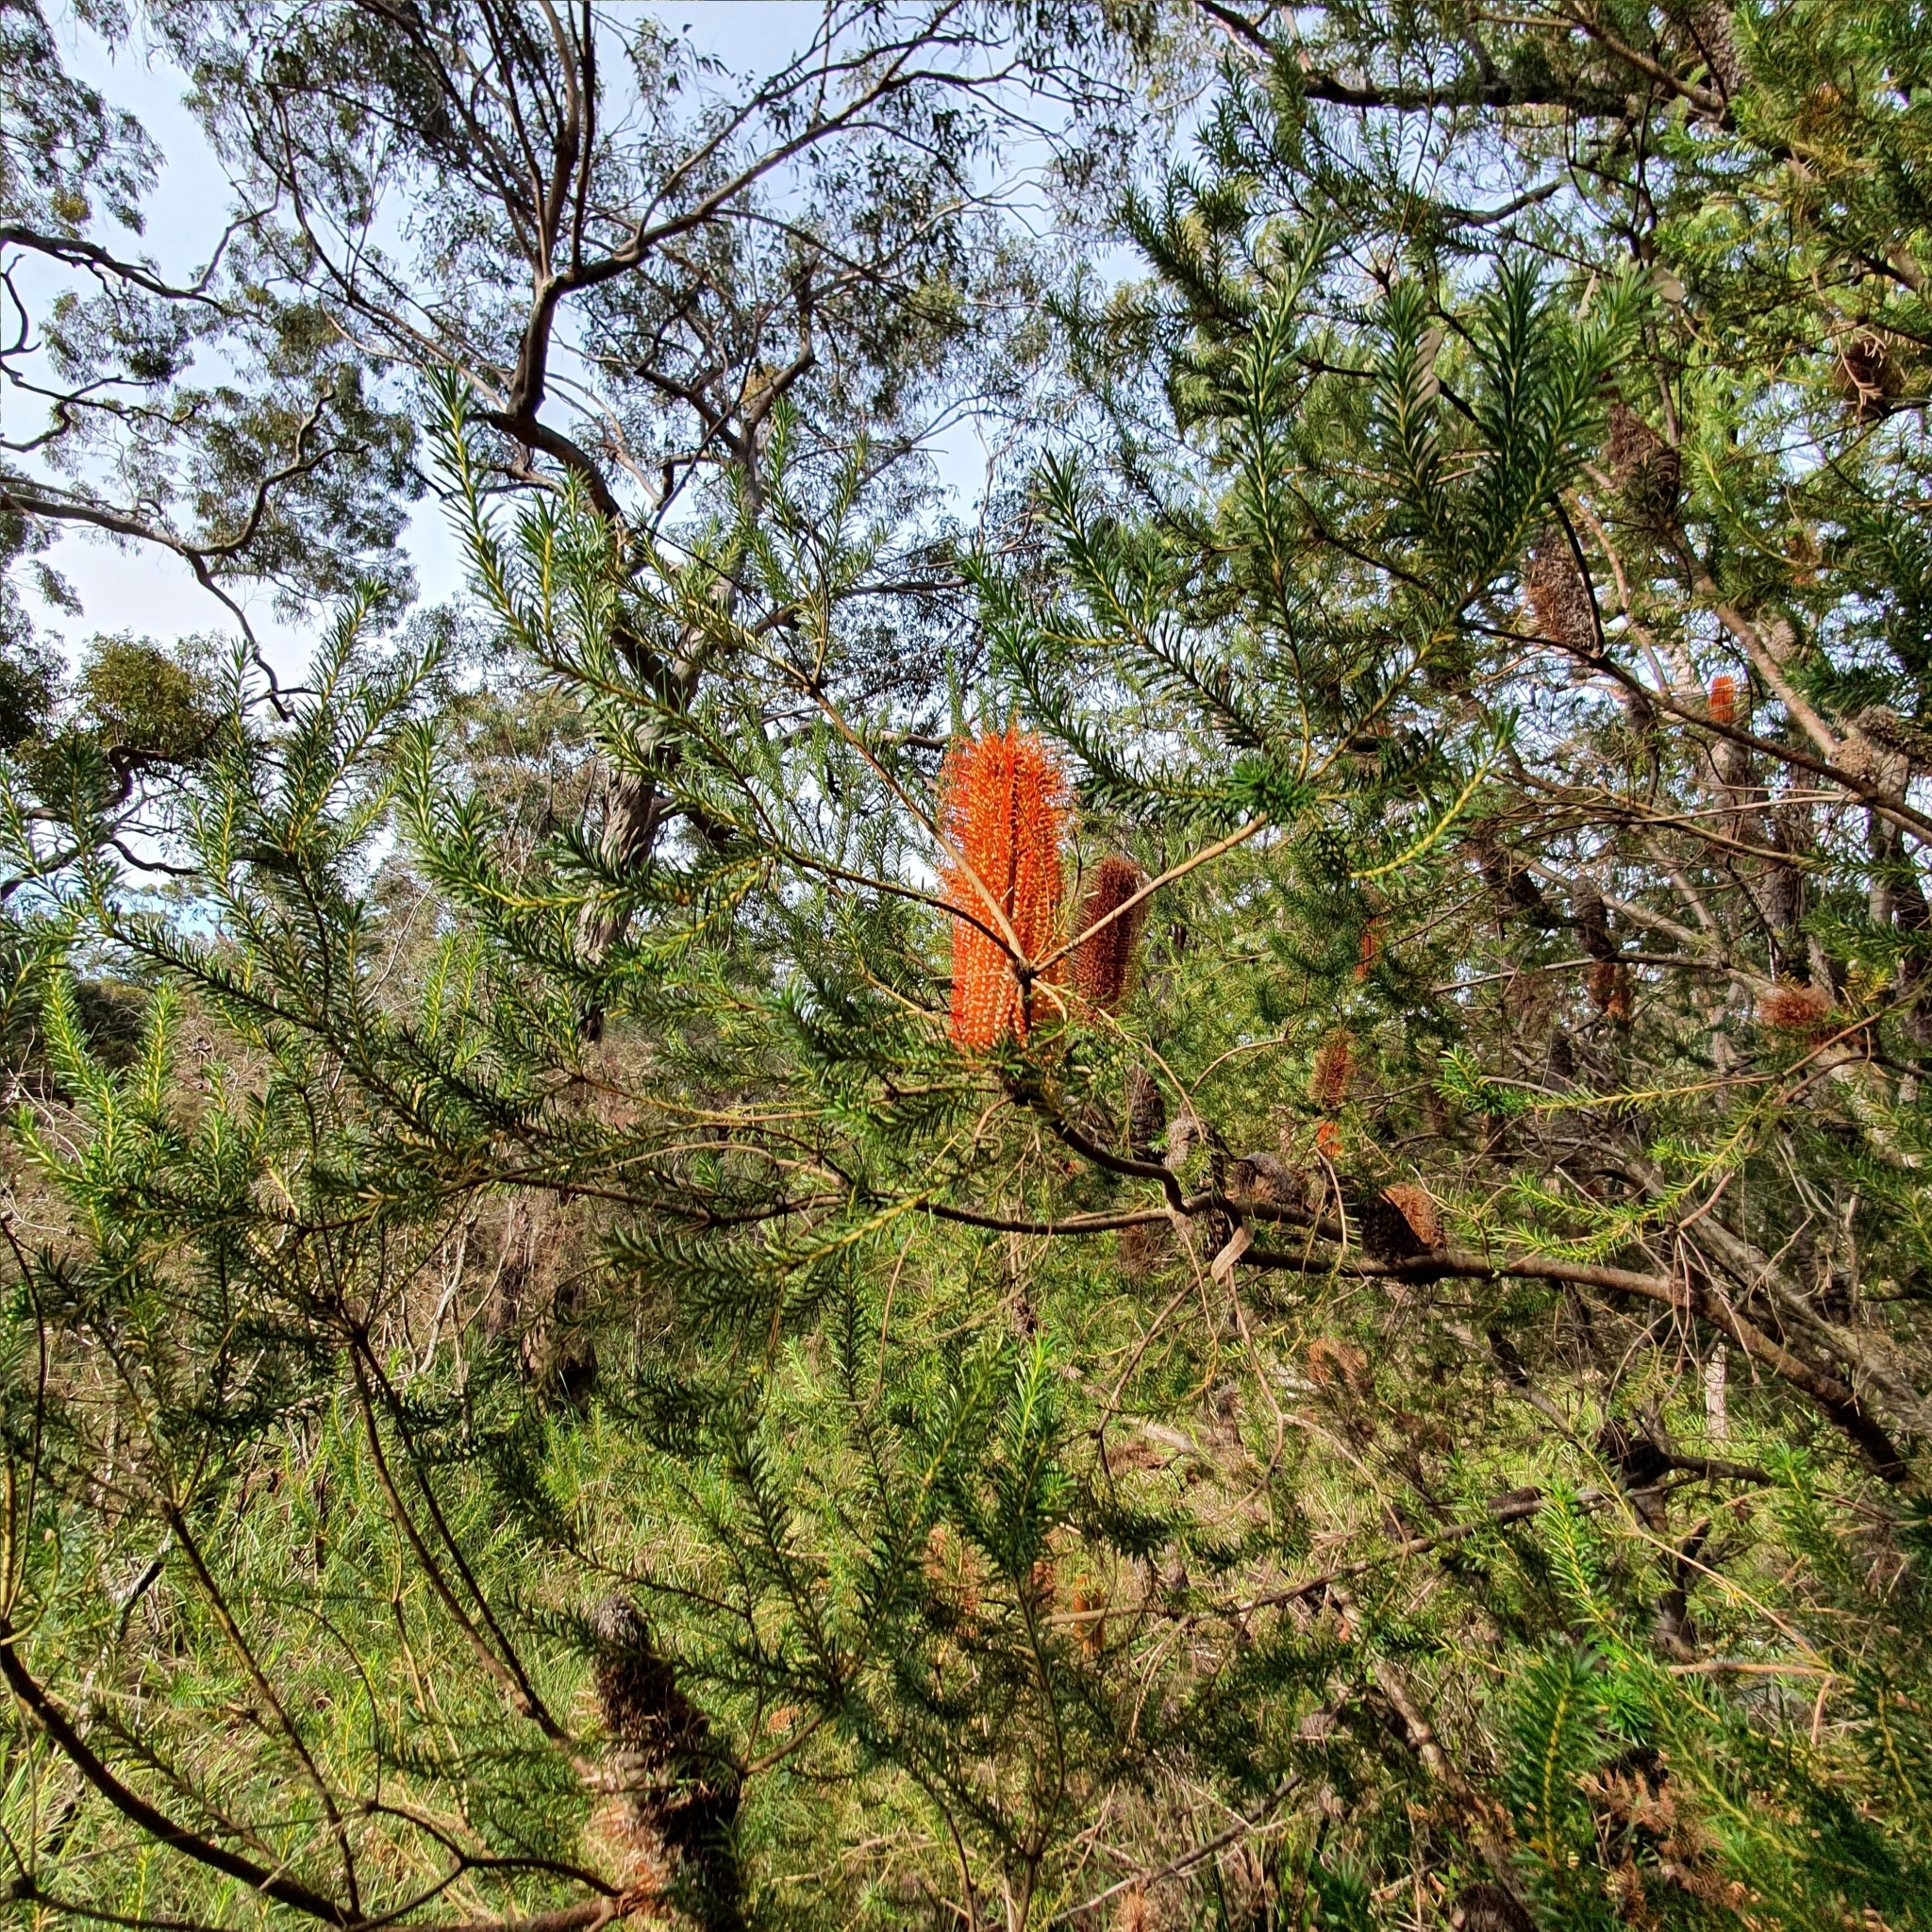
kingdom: Plantae
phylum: Tracheophyta
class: Magnoliopsida
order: Proteales
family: Proteaceae
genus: Banksia
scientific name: Banksia ericifolia
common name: Heath-leaf banksia
